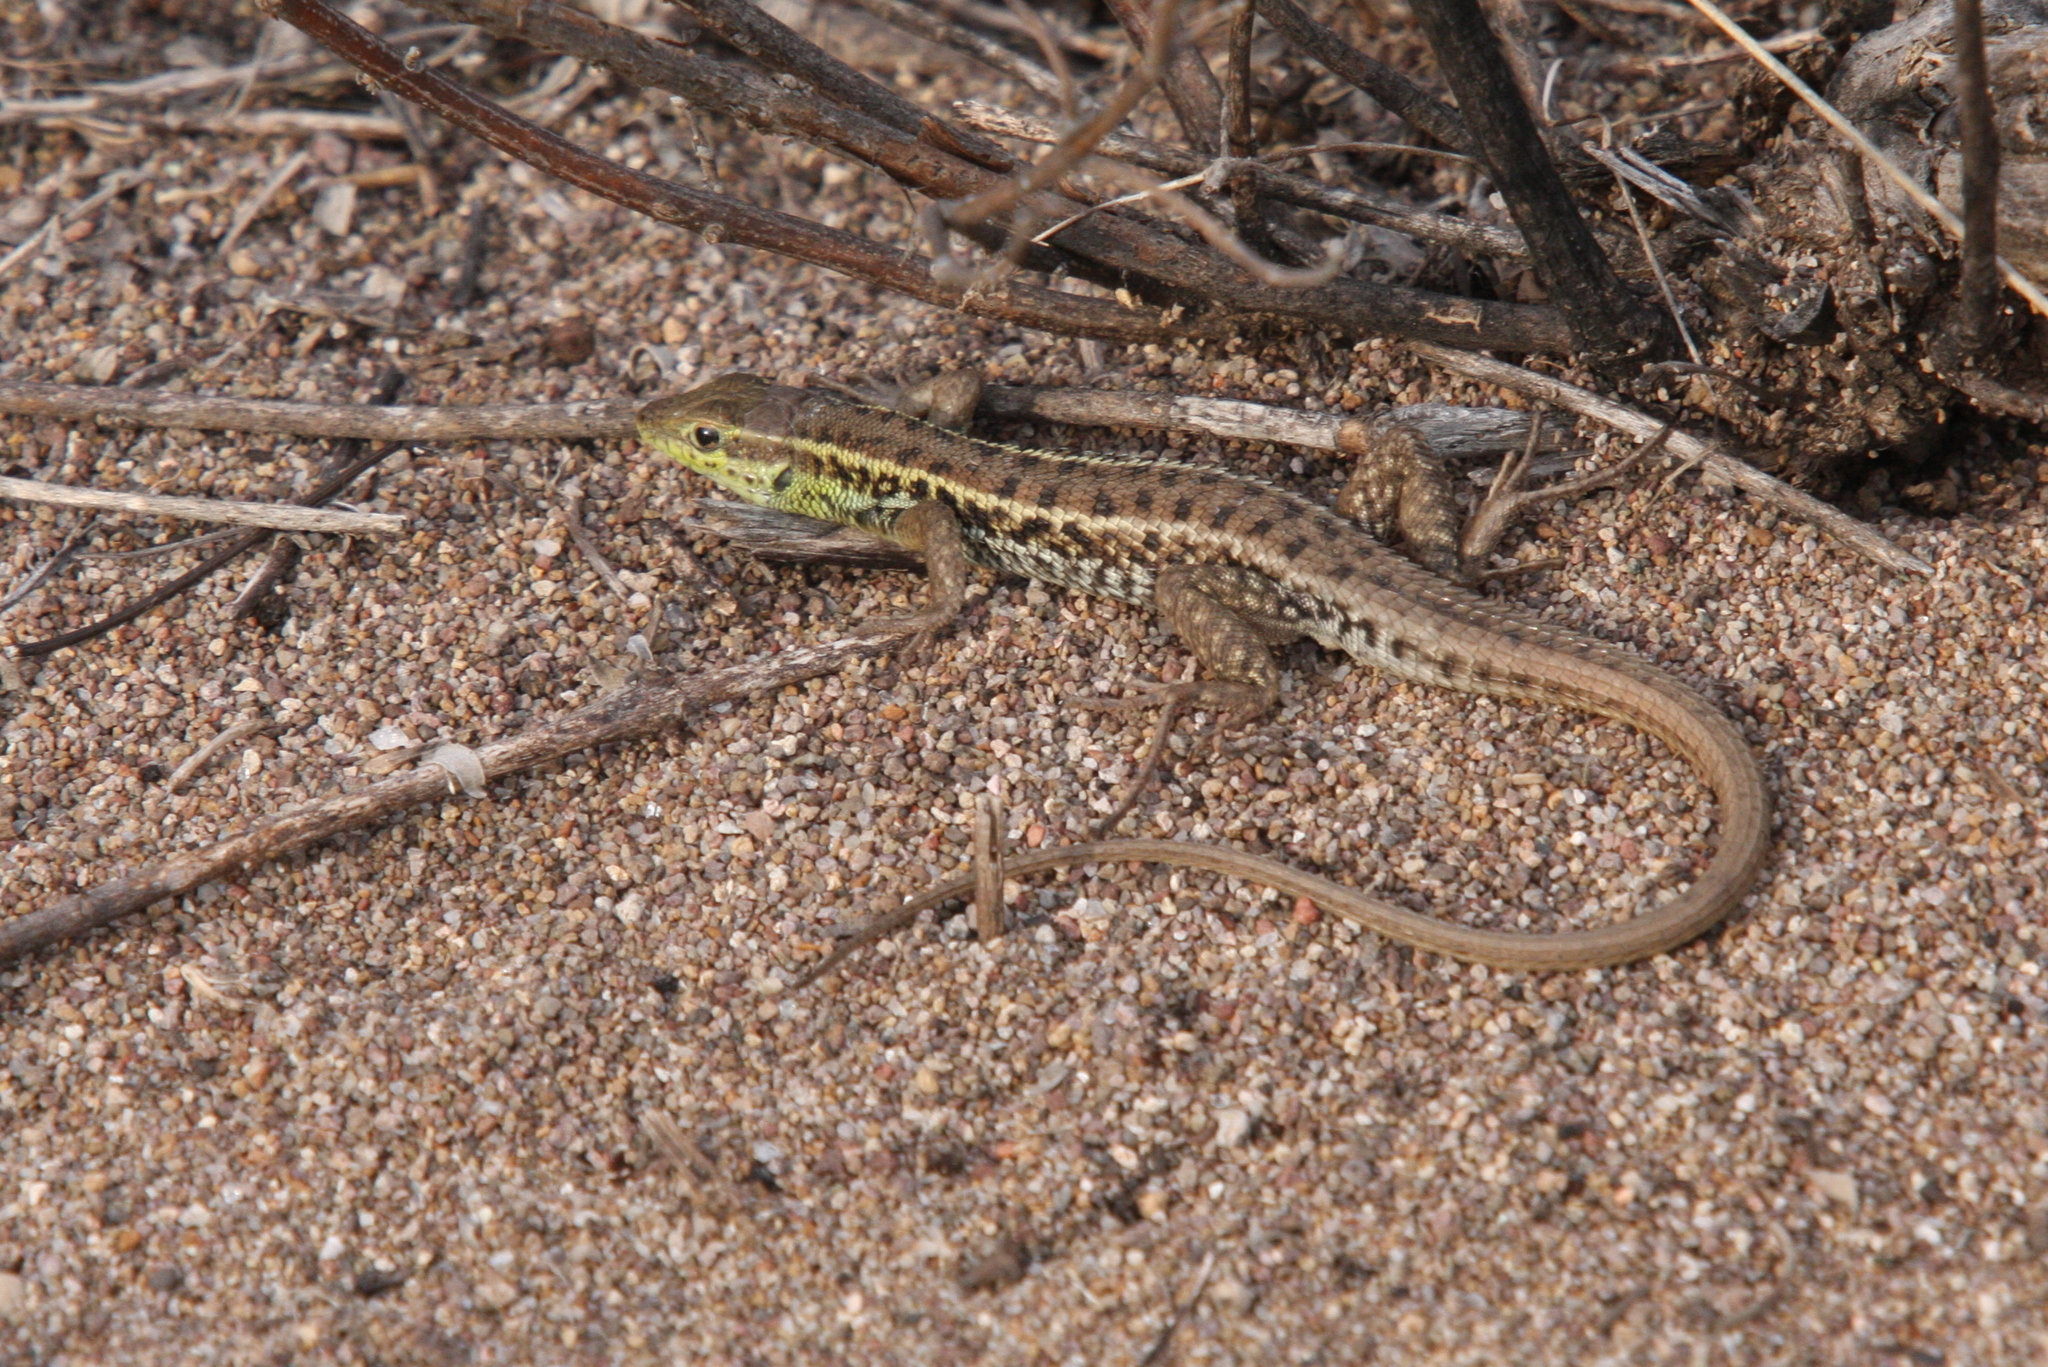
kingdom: Animalia
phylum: Chordata
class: Squamata
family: Lacertidae
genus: Ophisops
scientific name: Ophisops elegans
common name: Snake-eyed lizard
